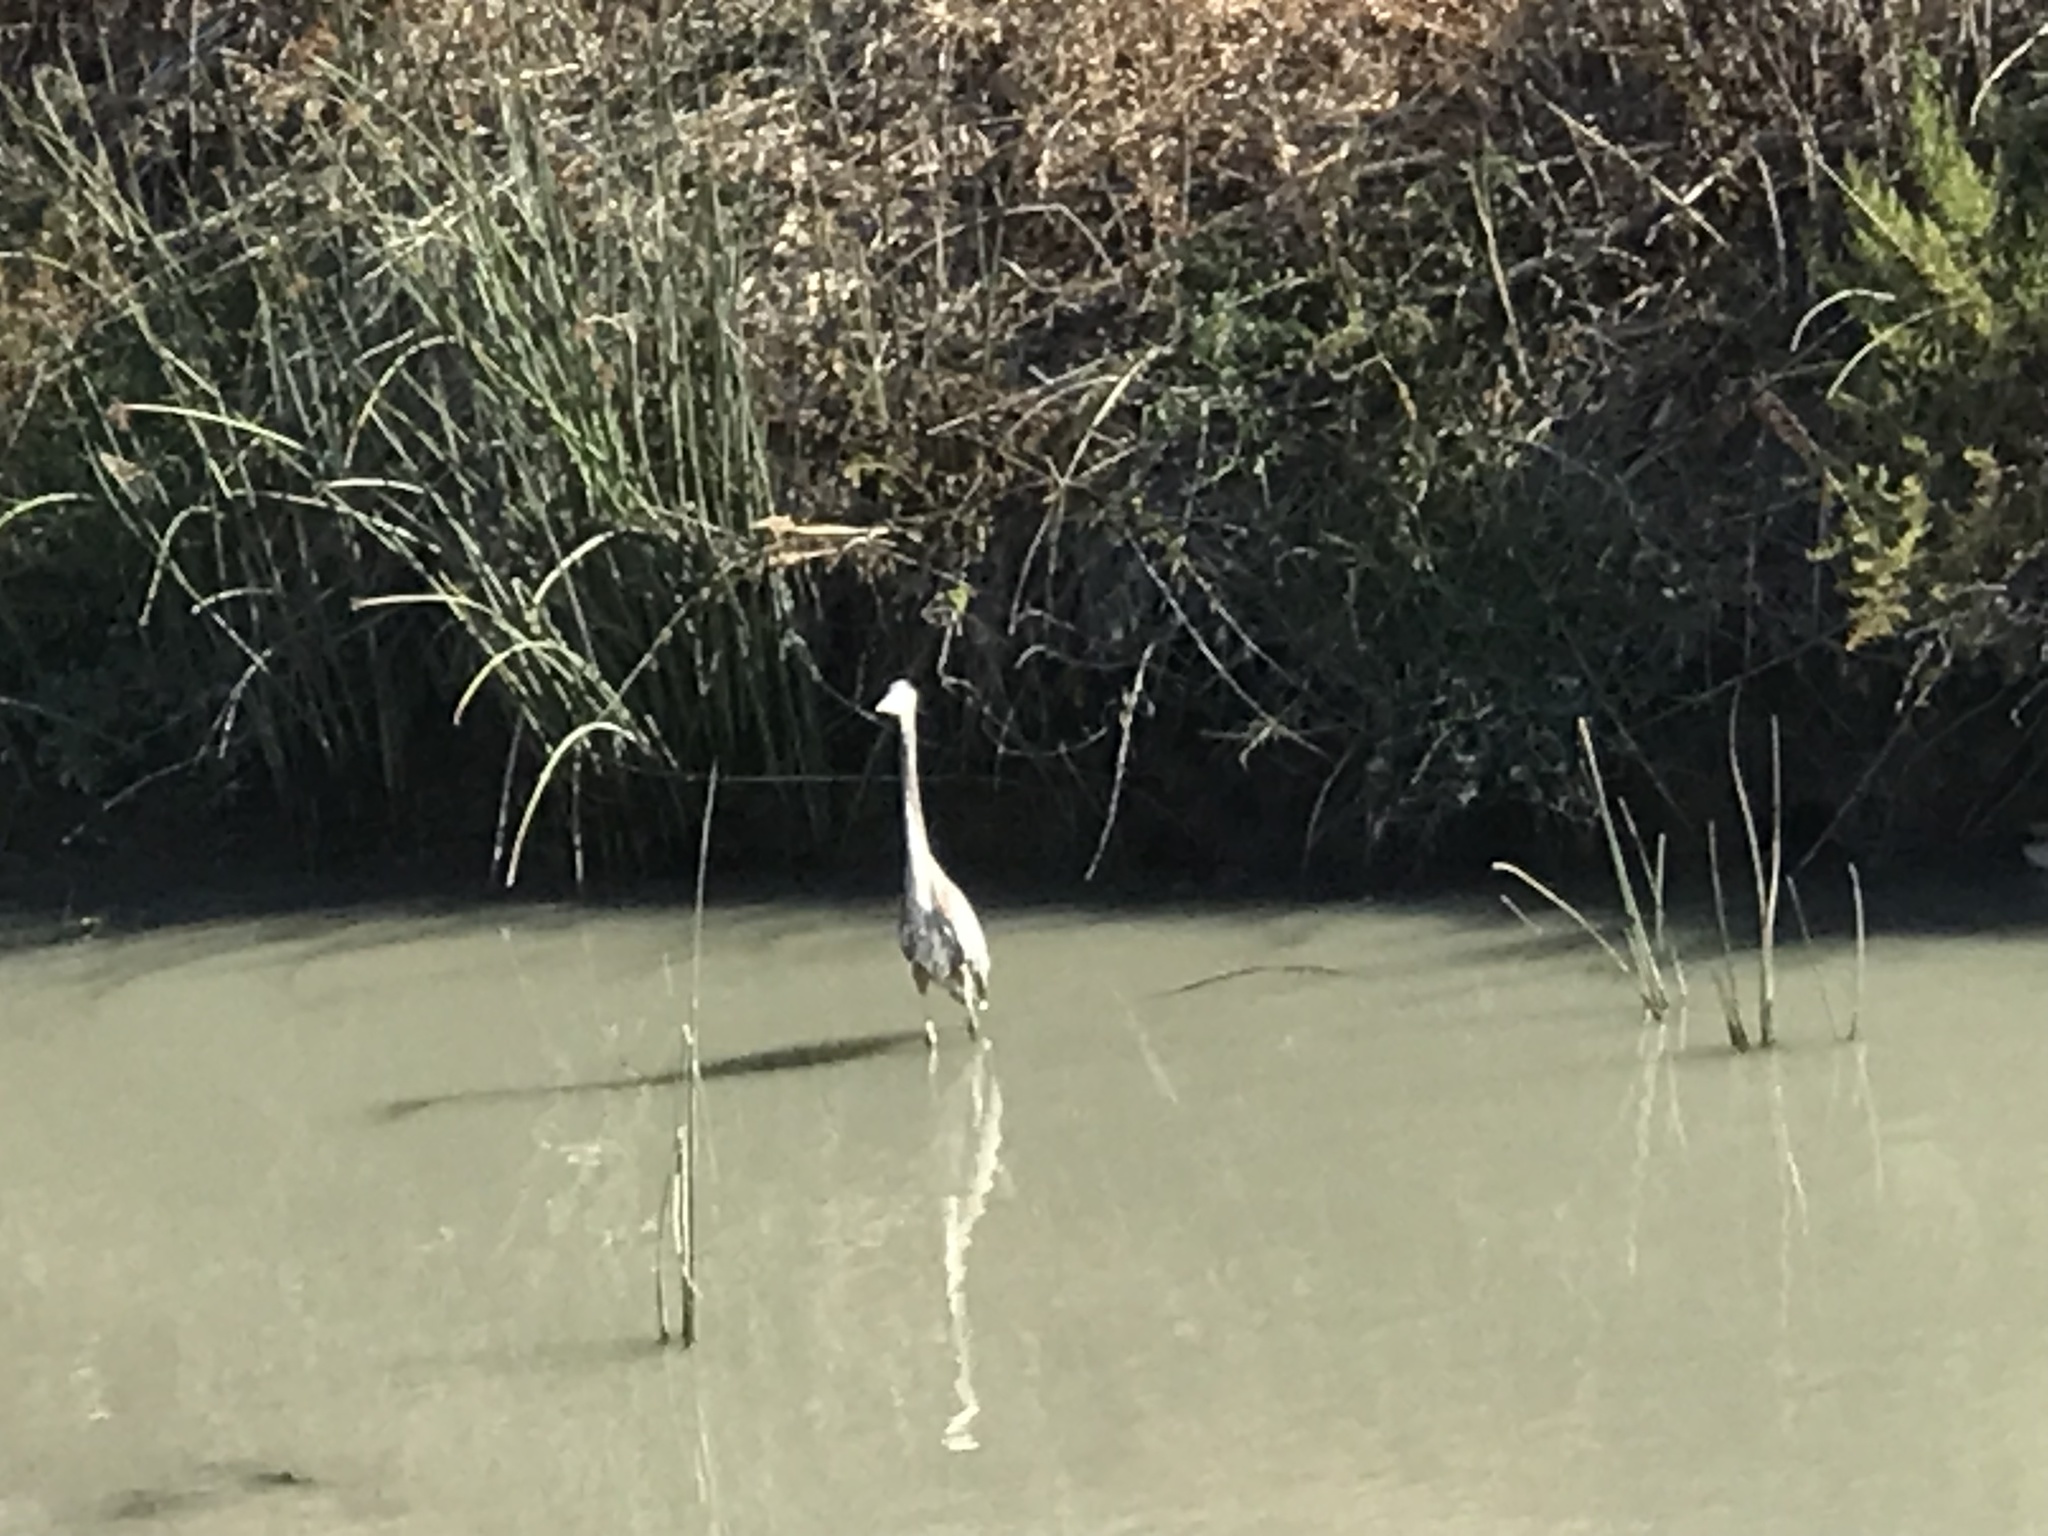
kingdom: Animalia
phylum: Chordata
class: Aves
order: Pelecaniformes
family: Ardeidae
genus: Ardea
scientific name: Ardea herodias
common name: Great blue heron
